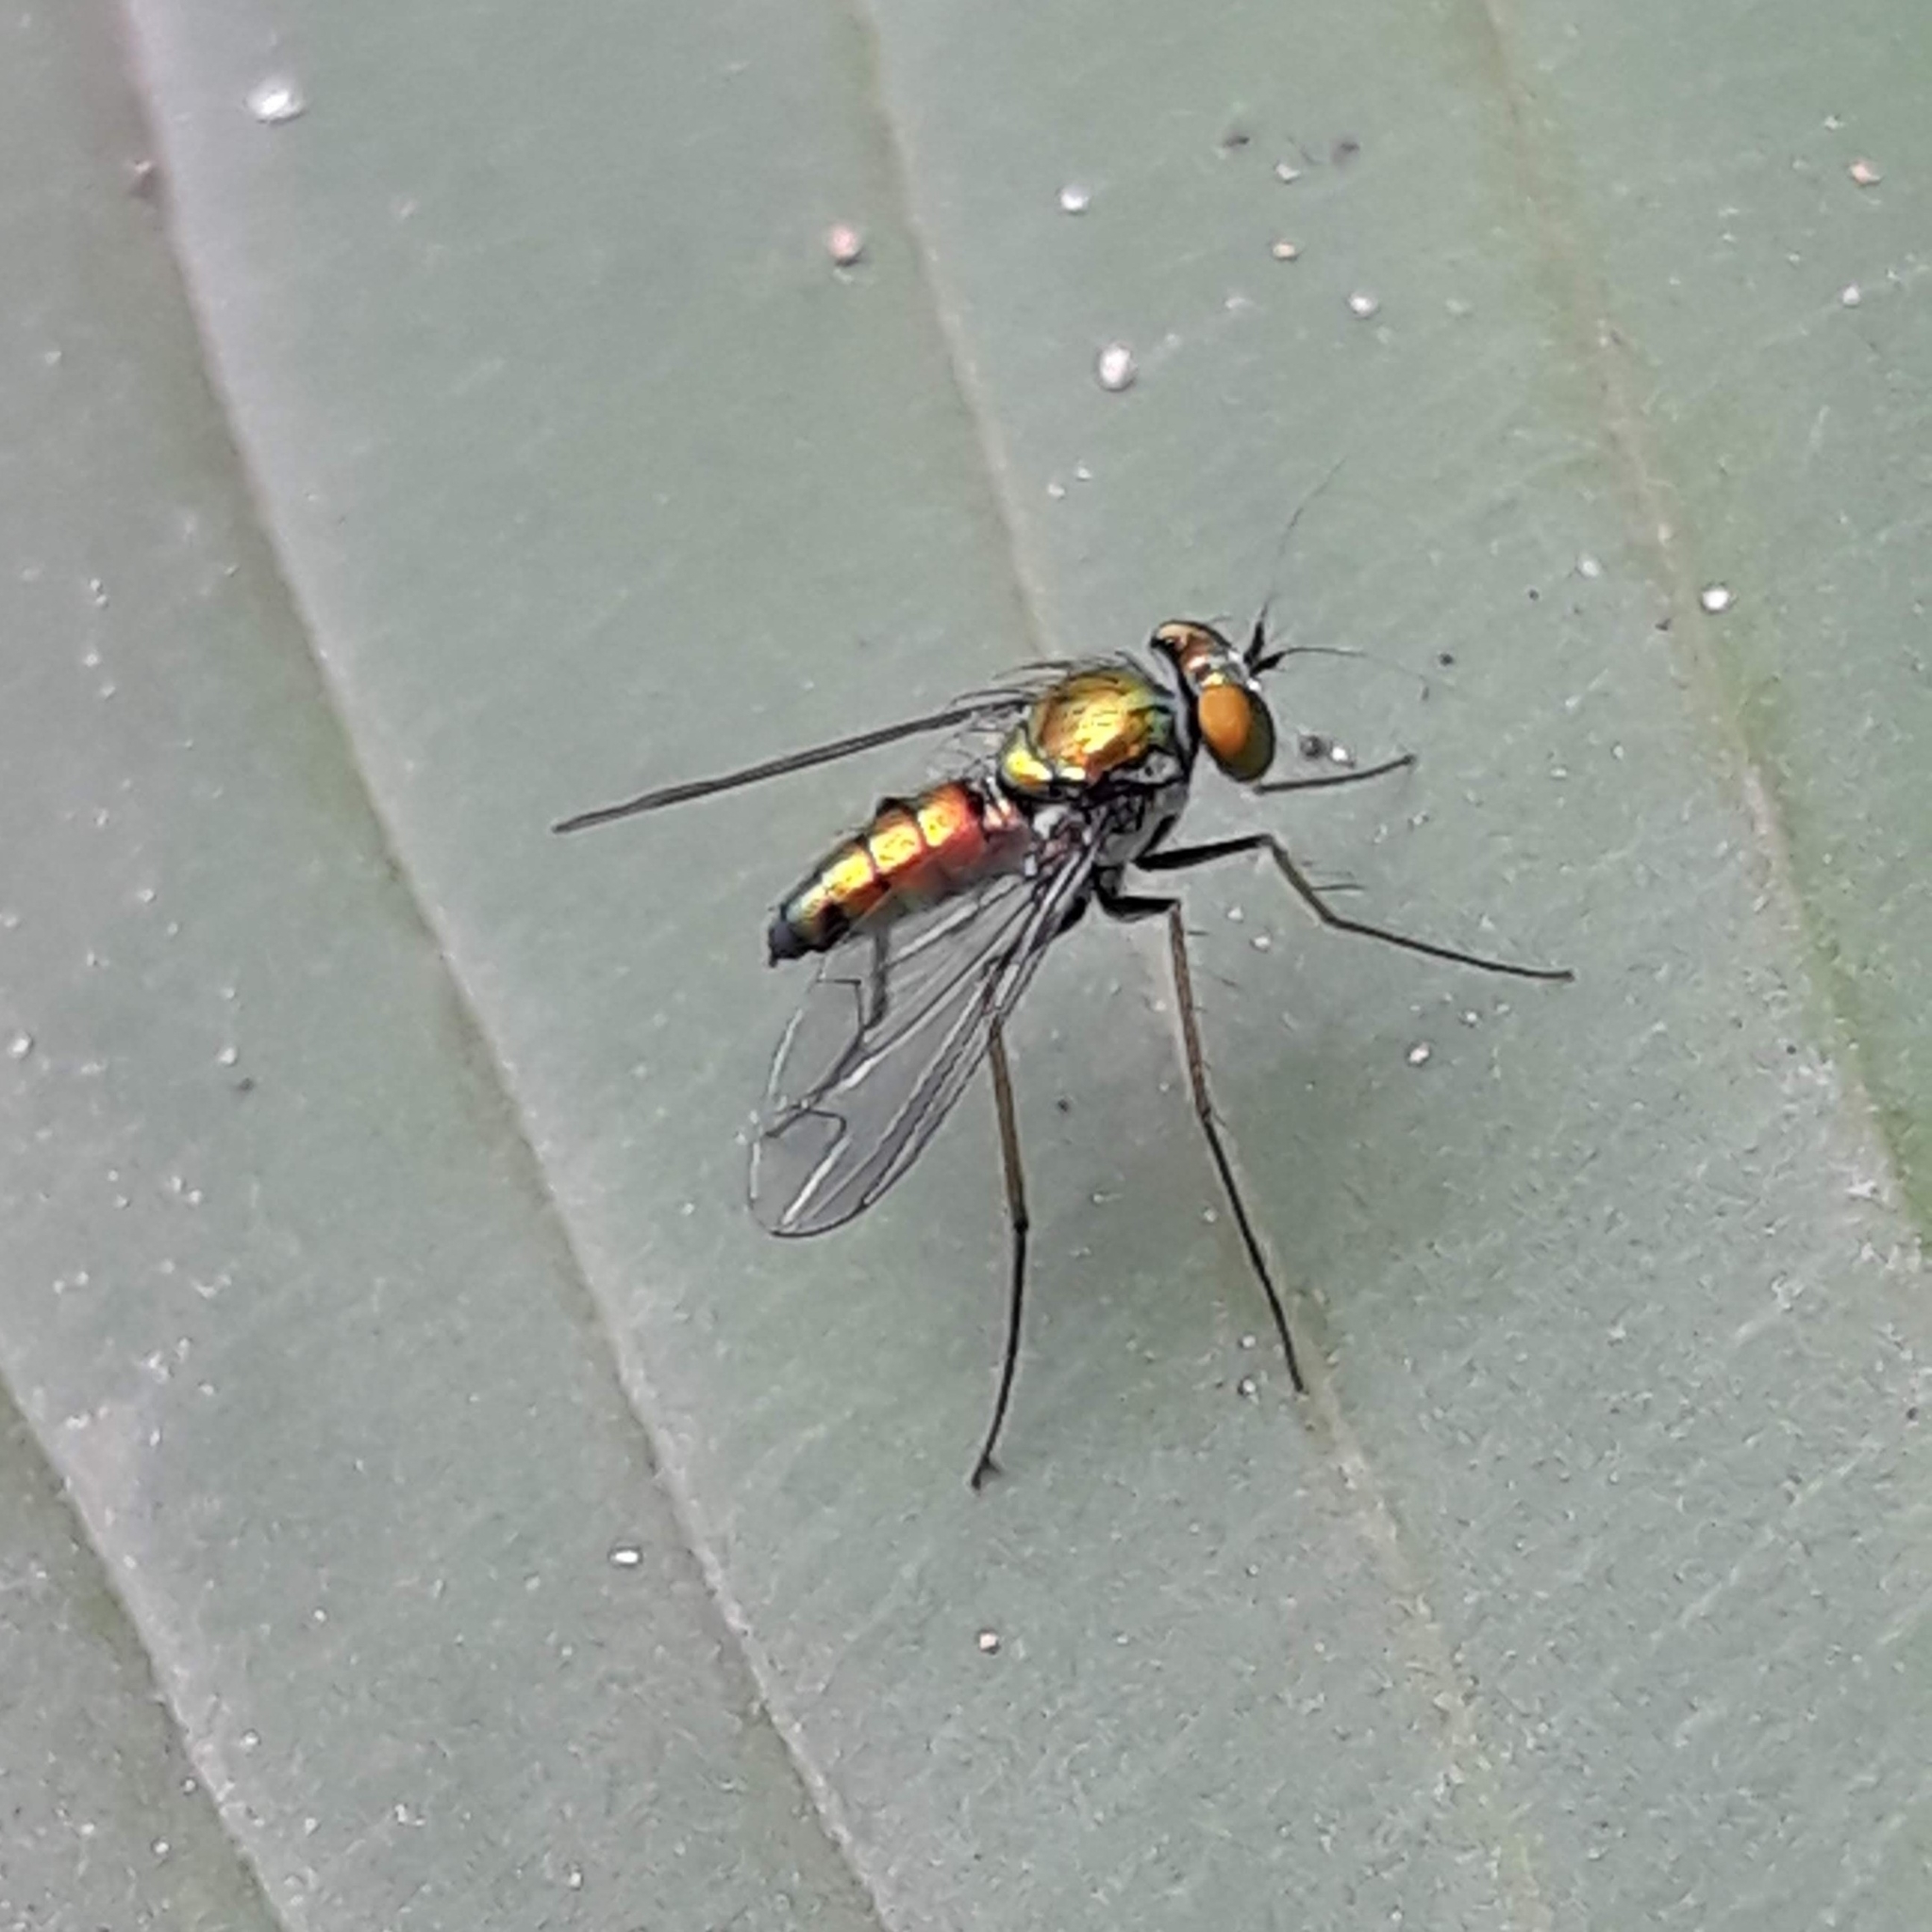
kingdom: Animalia
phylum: Arthropoda
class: Insecta
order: Diptera
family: Dolichopodidae
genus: Condylostylus
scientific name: Condylostylus
